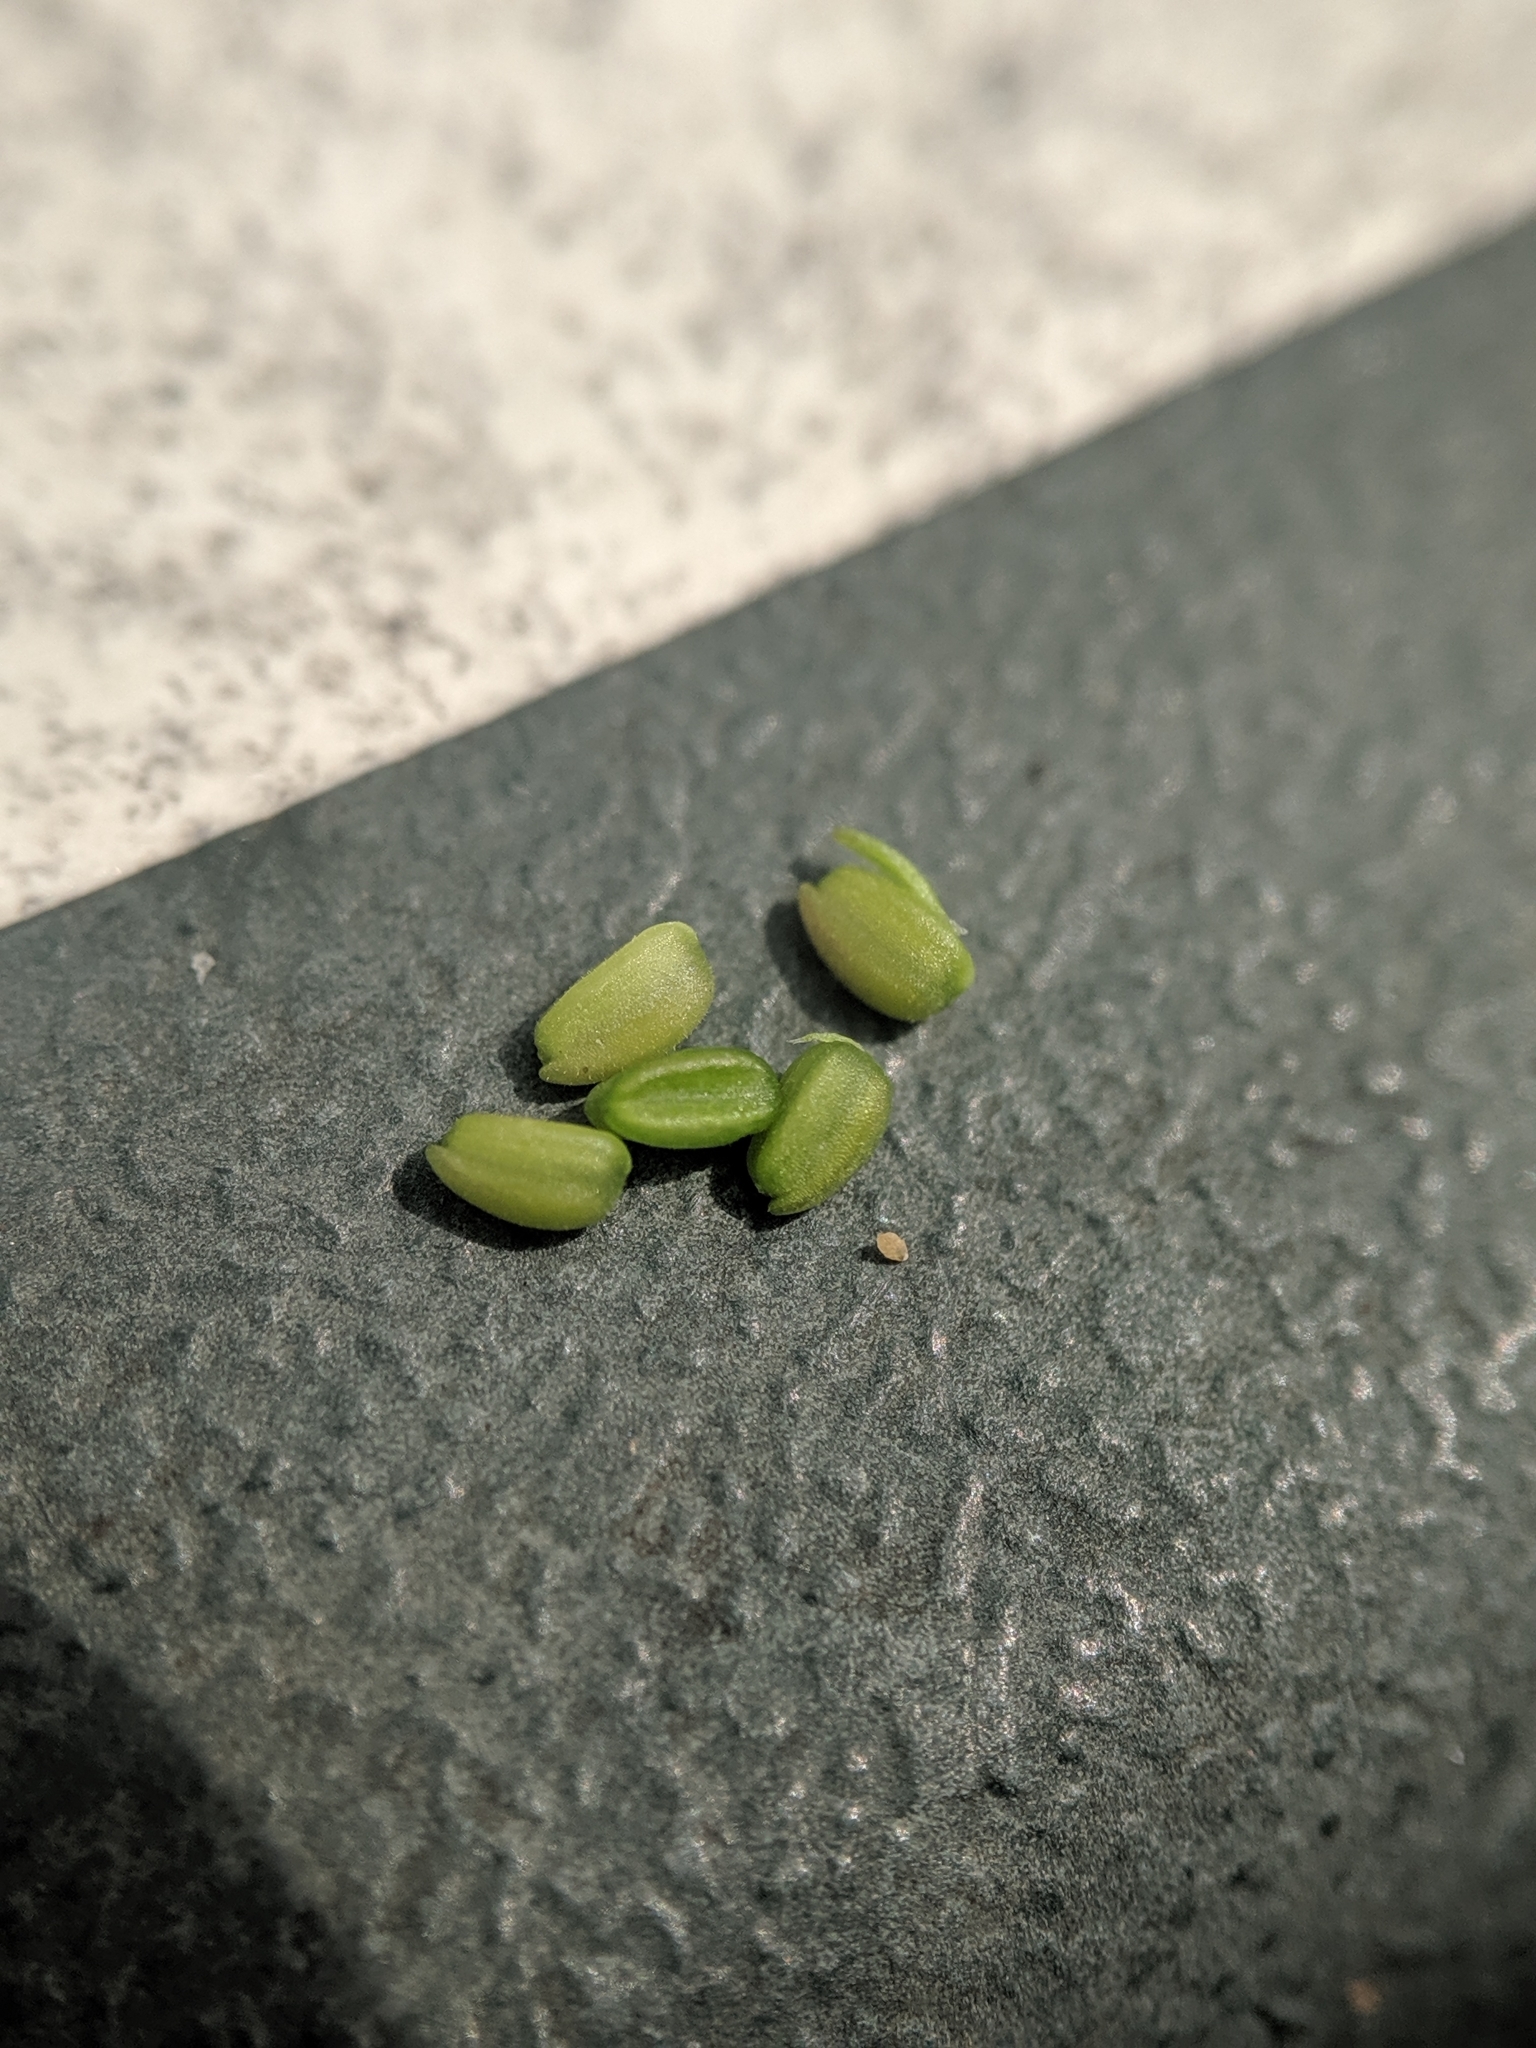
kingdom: Plantae
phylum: Tracheophyta
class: Magnoliopsida
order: Dipsacales
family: Caprifoliaceae
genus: Valerianella
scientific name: Valerianella carinata
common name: Keeled-fruited cornsalad
